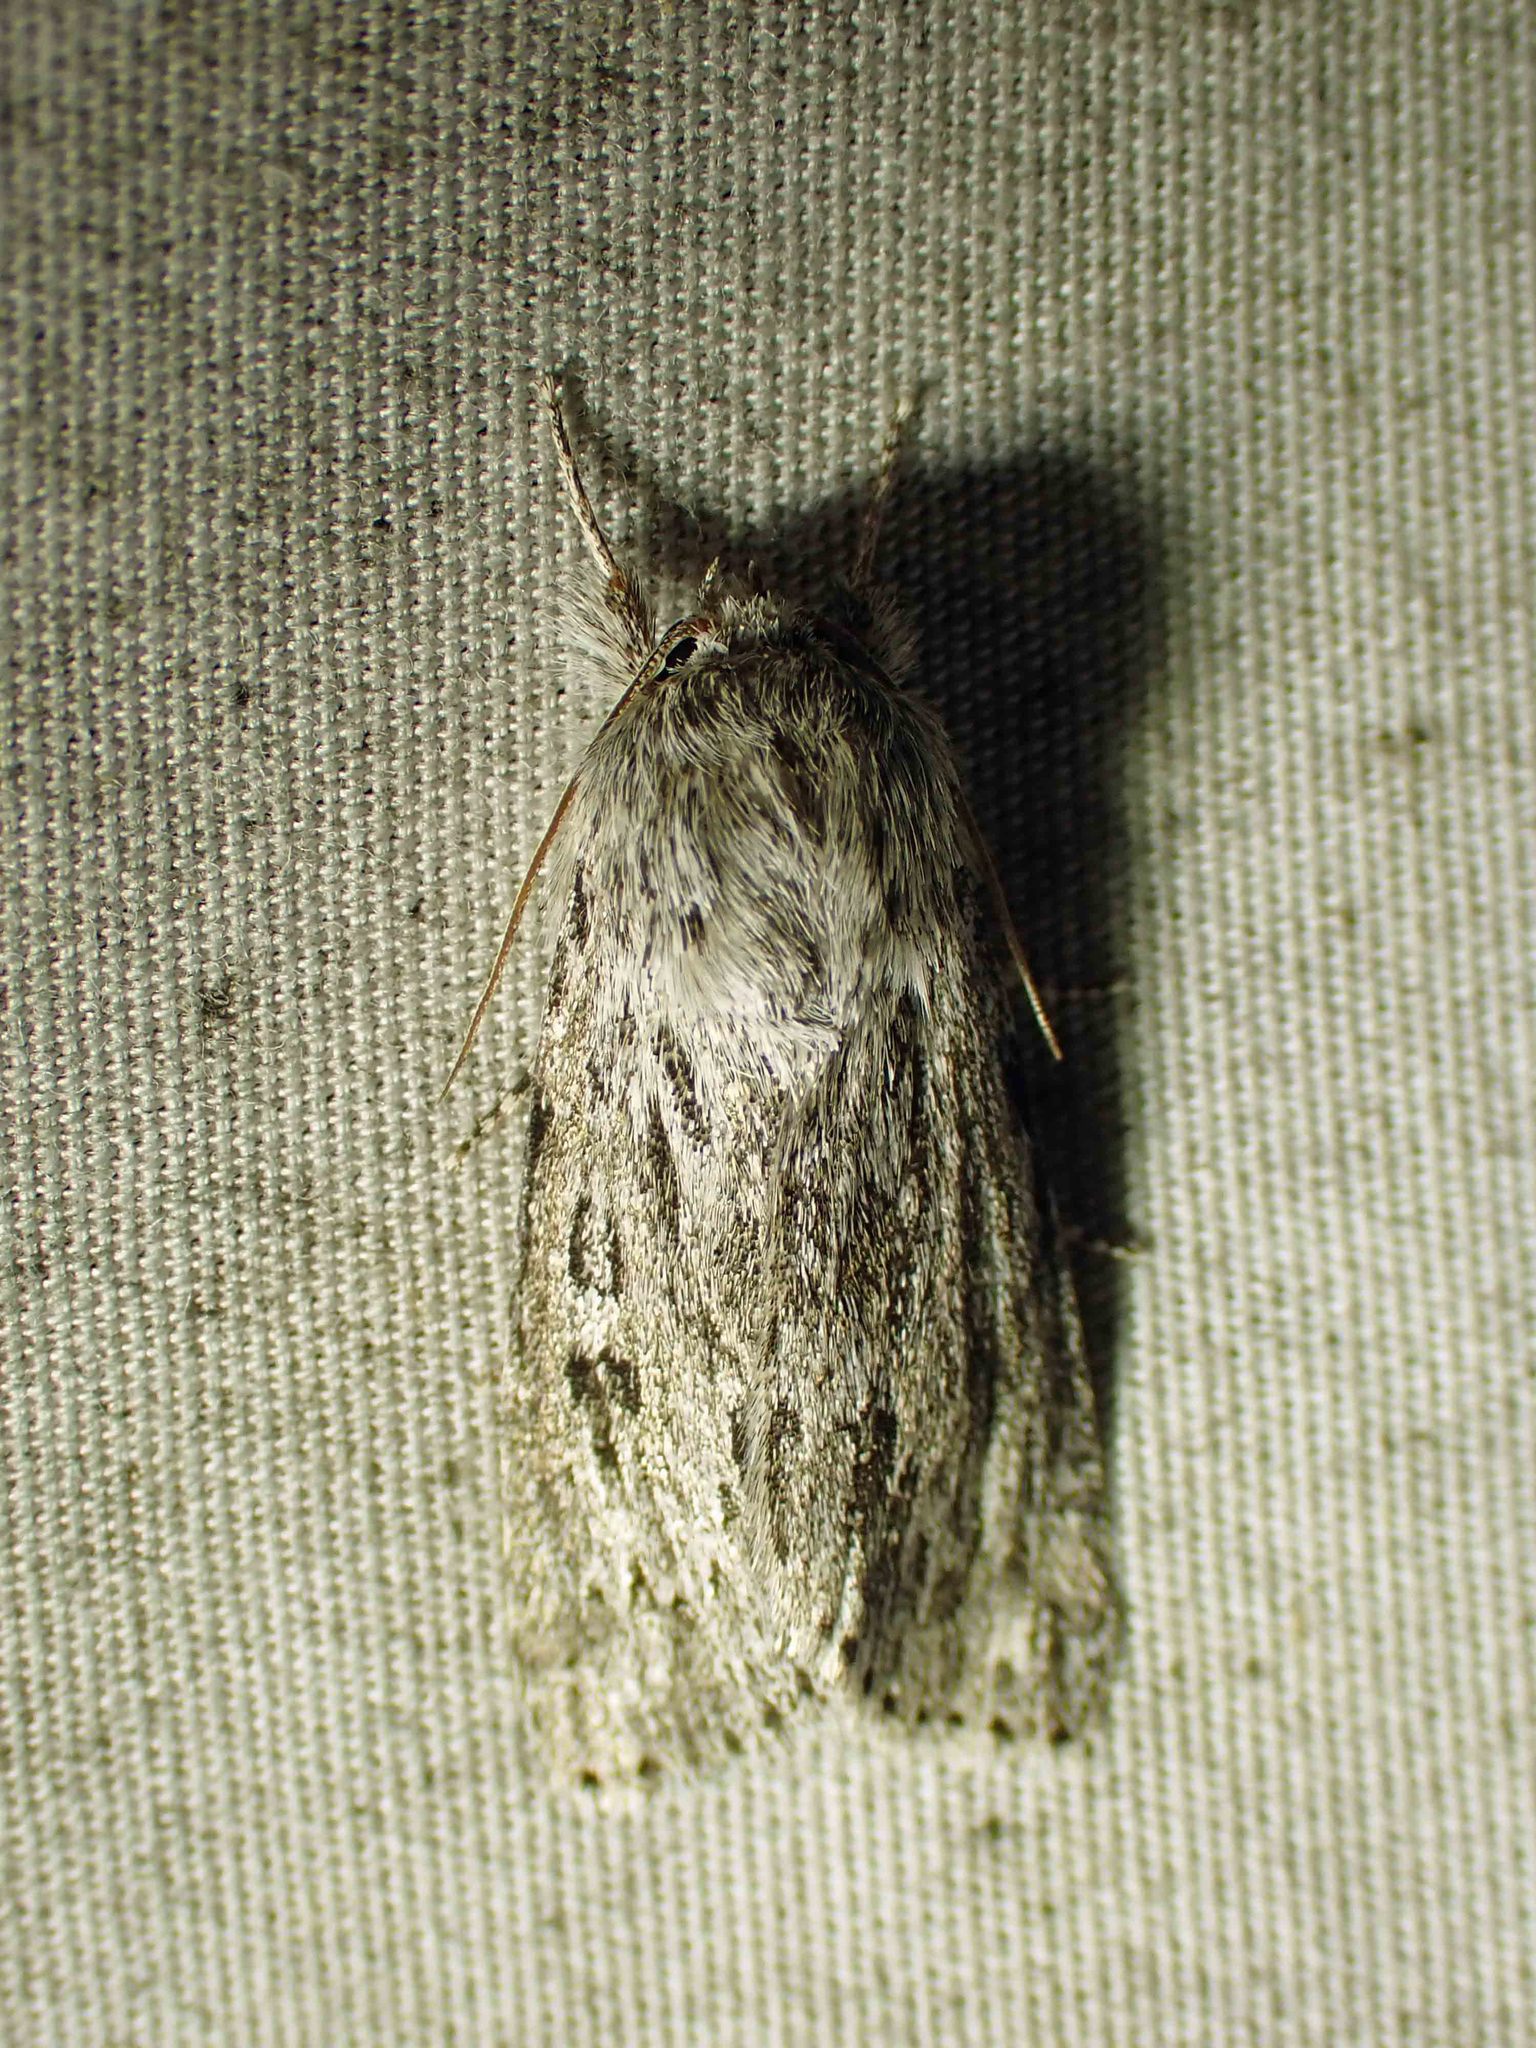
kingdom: Animalia
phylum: Arthropoda
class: Insecta
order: Lepidoptera
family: Noctuidae
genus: Acronicta
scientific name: Acronicta oblinita
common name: Smeared dagger
